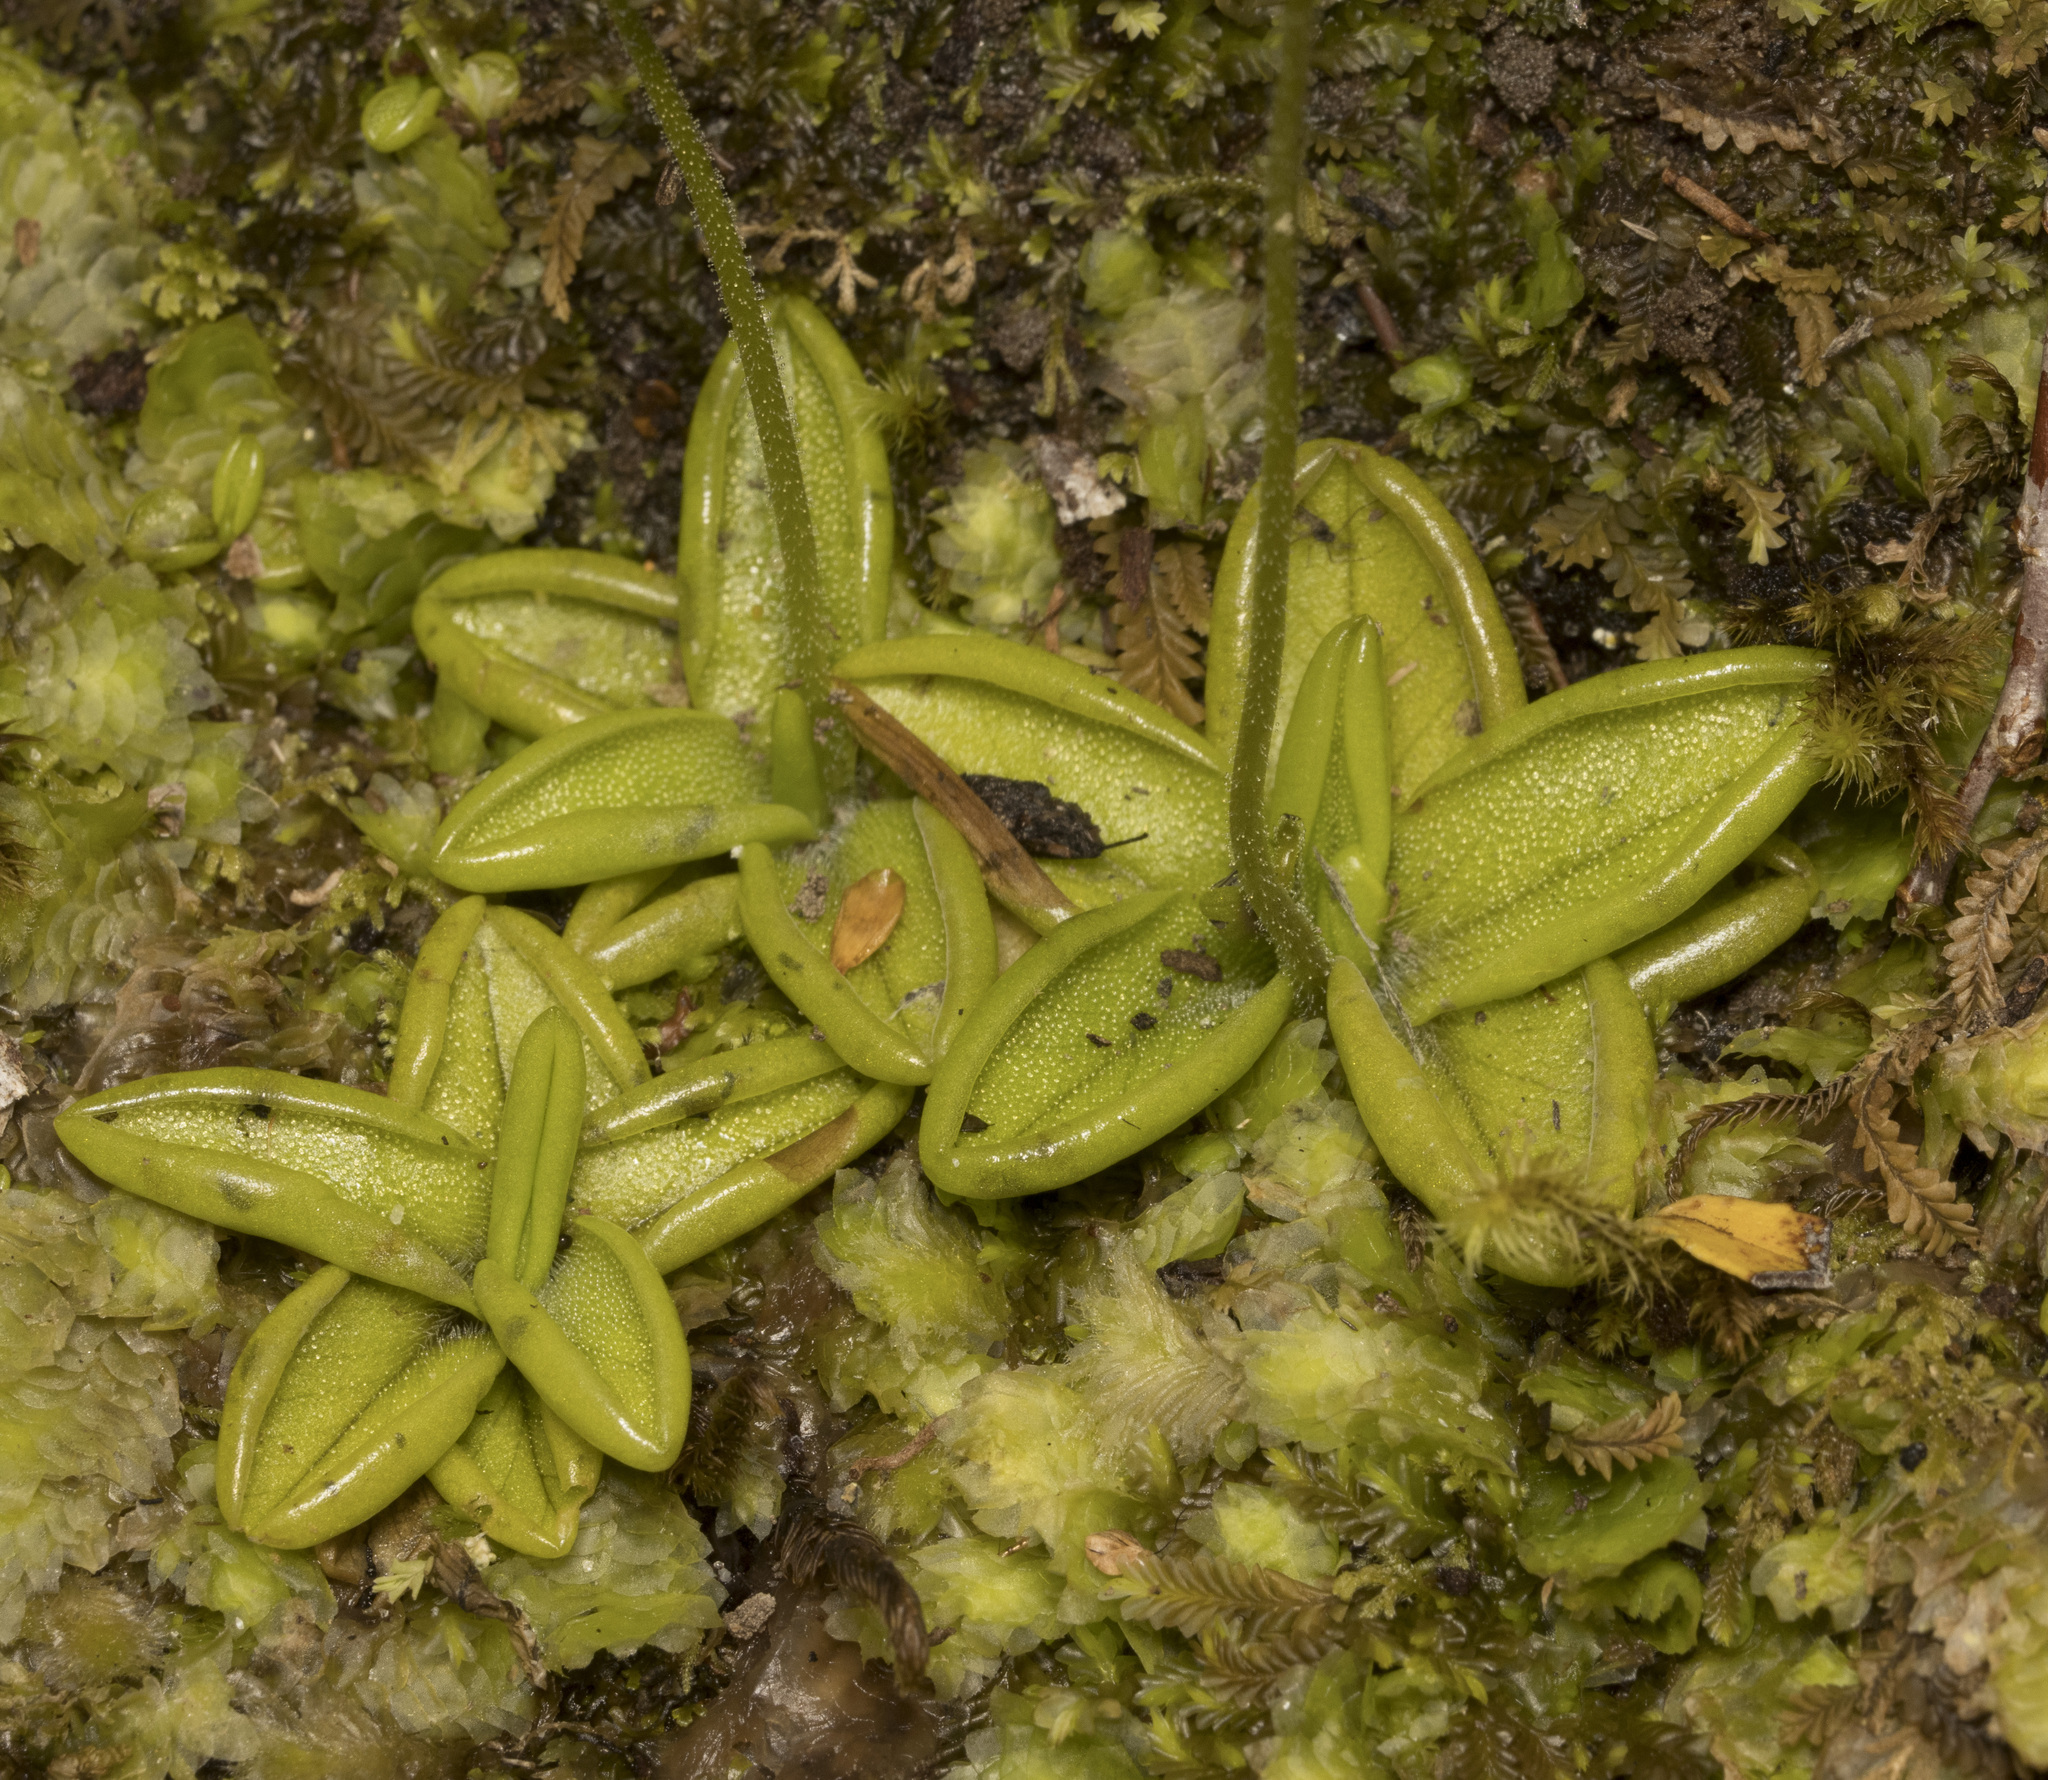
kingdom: Plantae
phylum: Tracheophyta
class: Magnoliopsida
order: Lamiales
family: Lentibulariaceae
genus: Pinguicula
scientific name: Pinguicula antarctica
